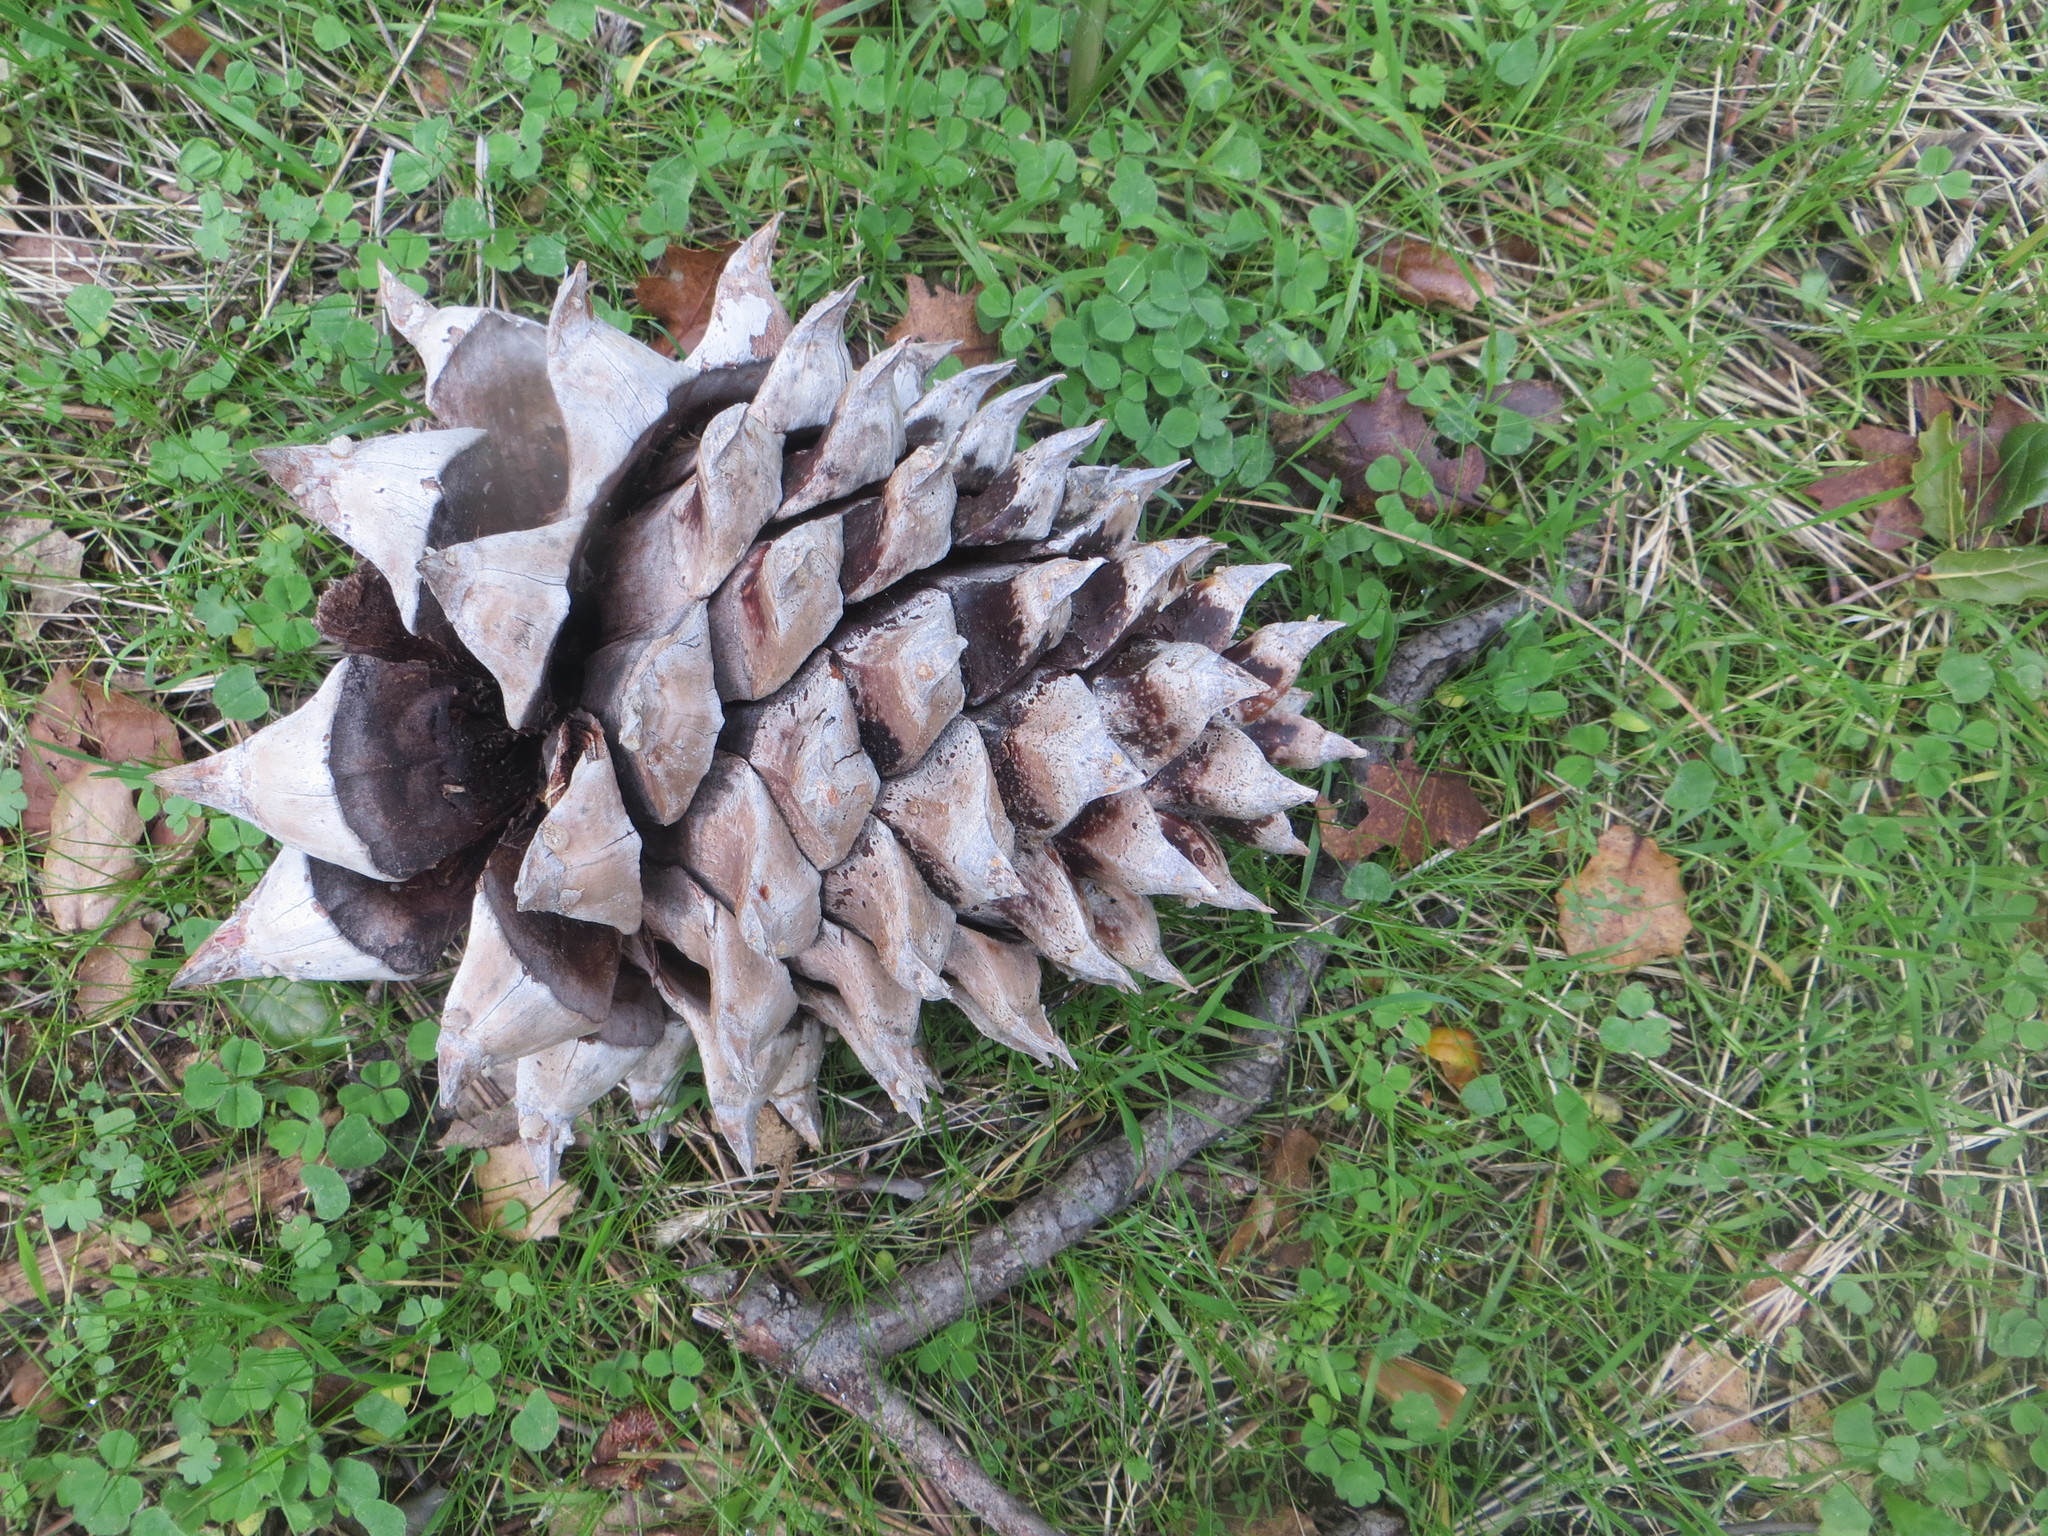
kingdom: Plantae
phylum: Tracheophyta
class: Pinopsida
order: Pinales
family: Pinaceae
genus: Pinus
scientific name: Pinus sabiniana
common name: Bull pine
